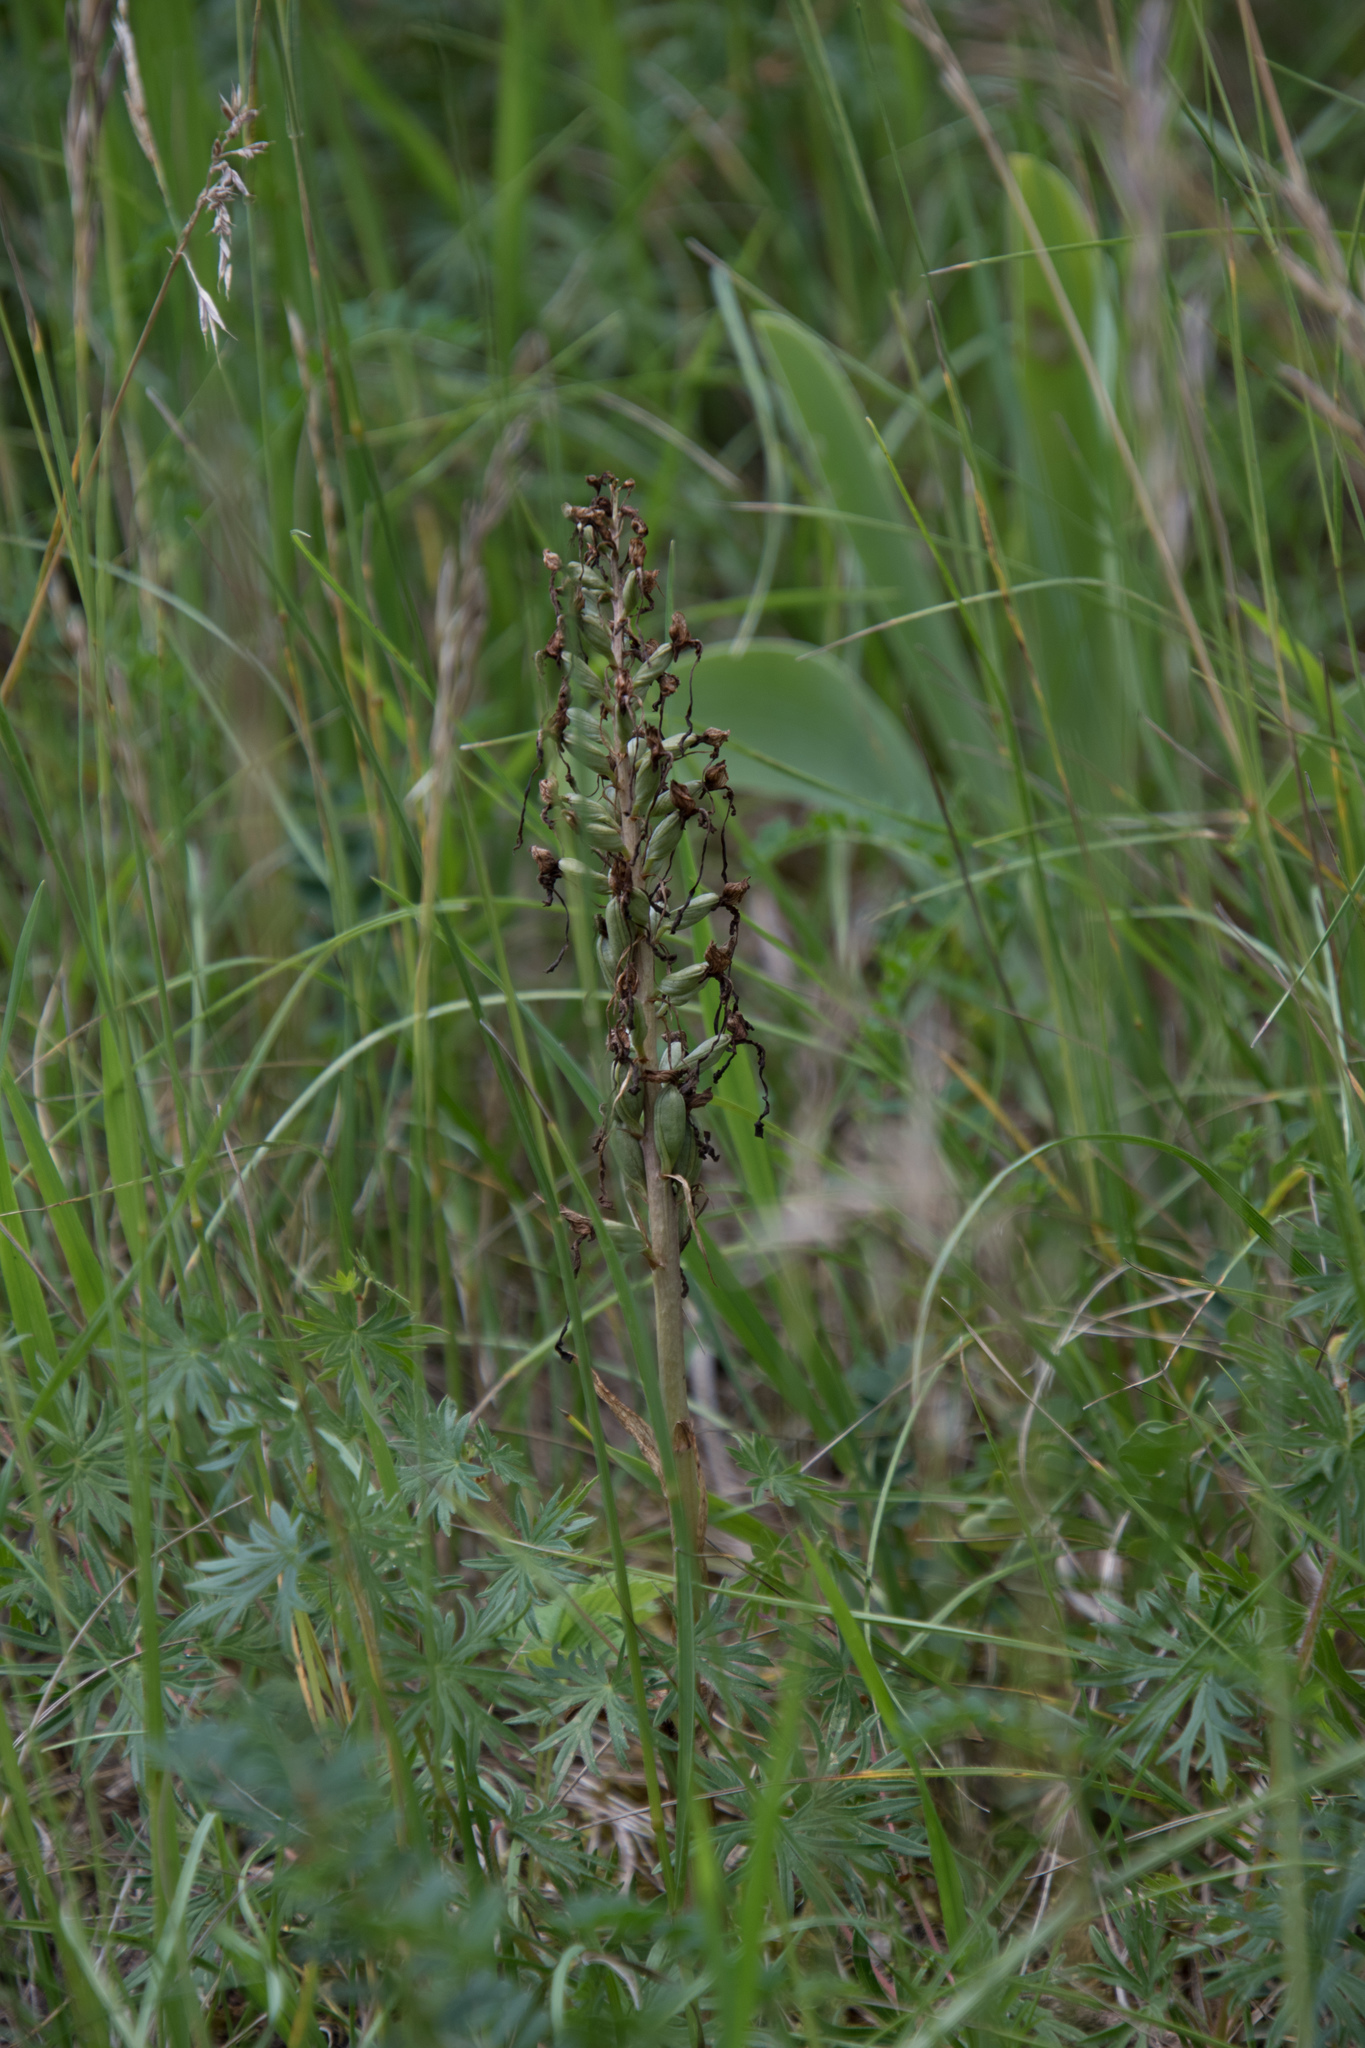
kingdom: Plantae
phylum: Tracheophyta
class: Liliopsida
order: Asparagales
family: Orchidaceae
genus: Himantoglossum
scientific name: Himantoglossum hircinum
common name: Lizard orchid
